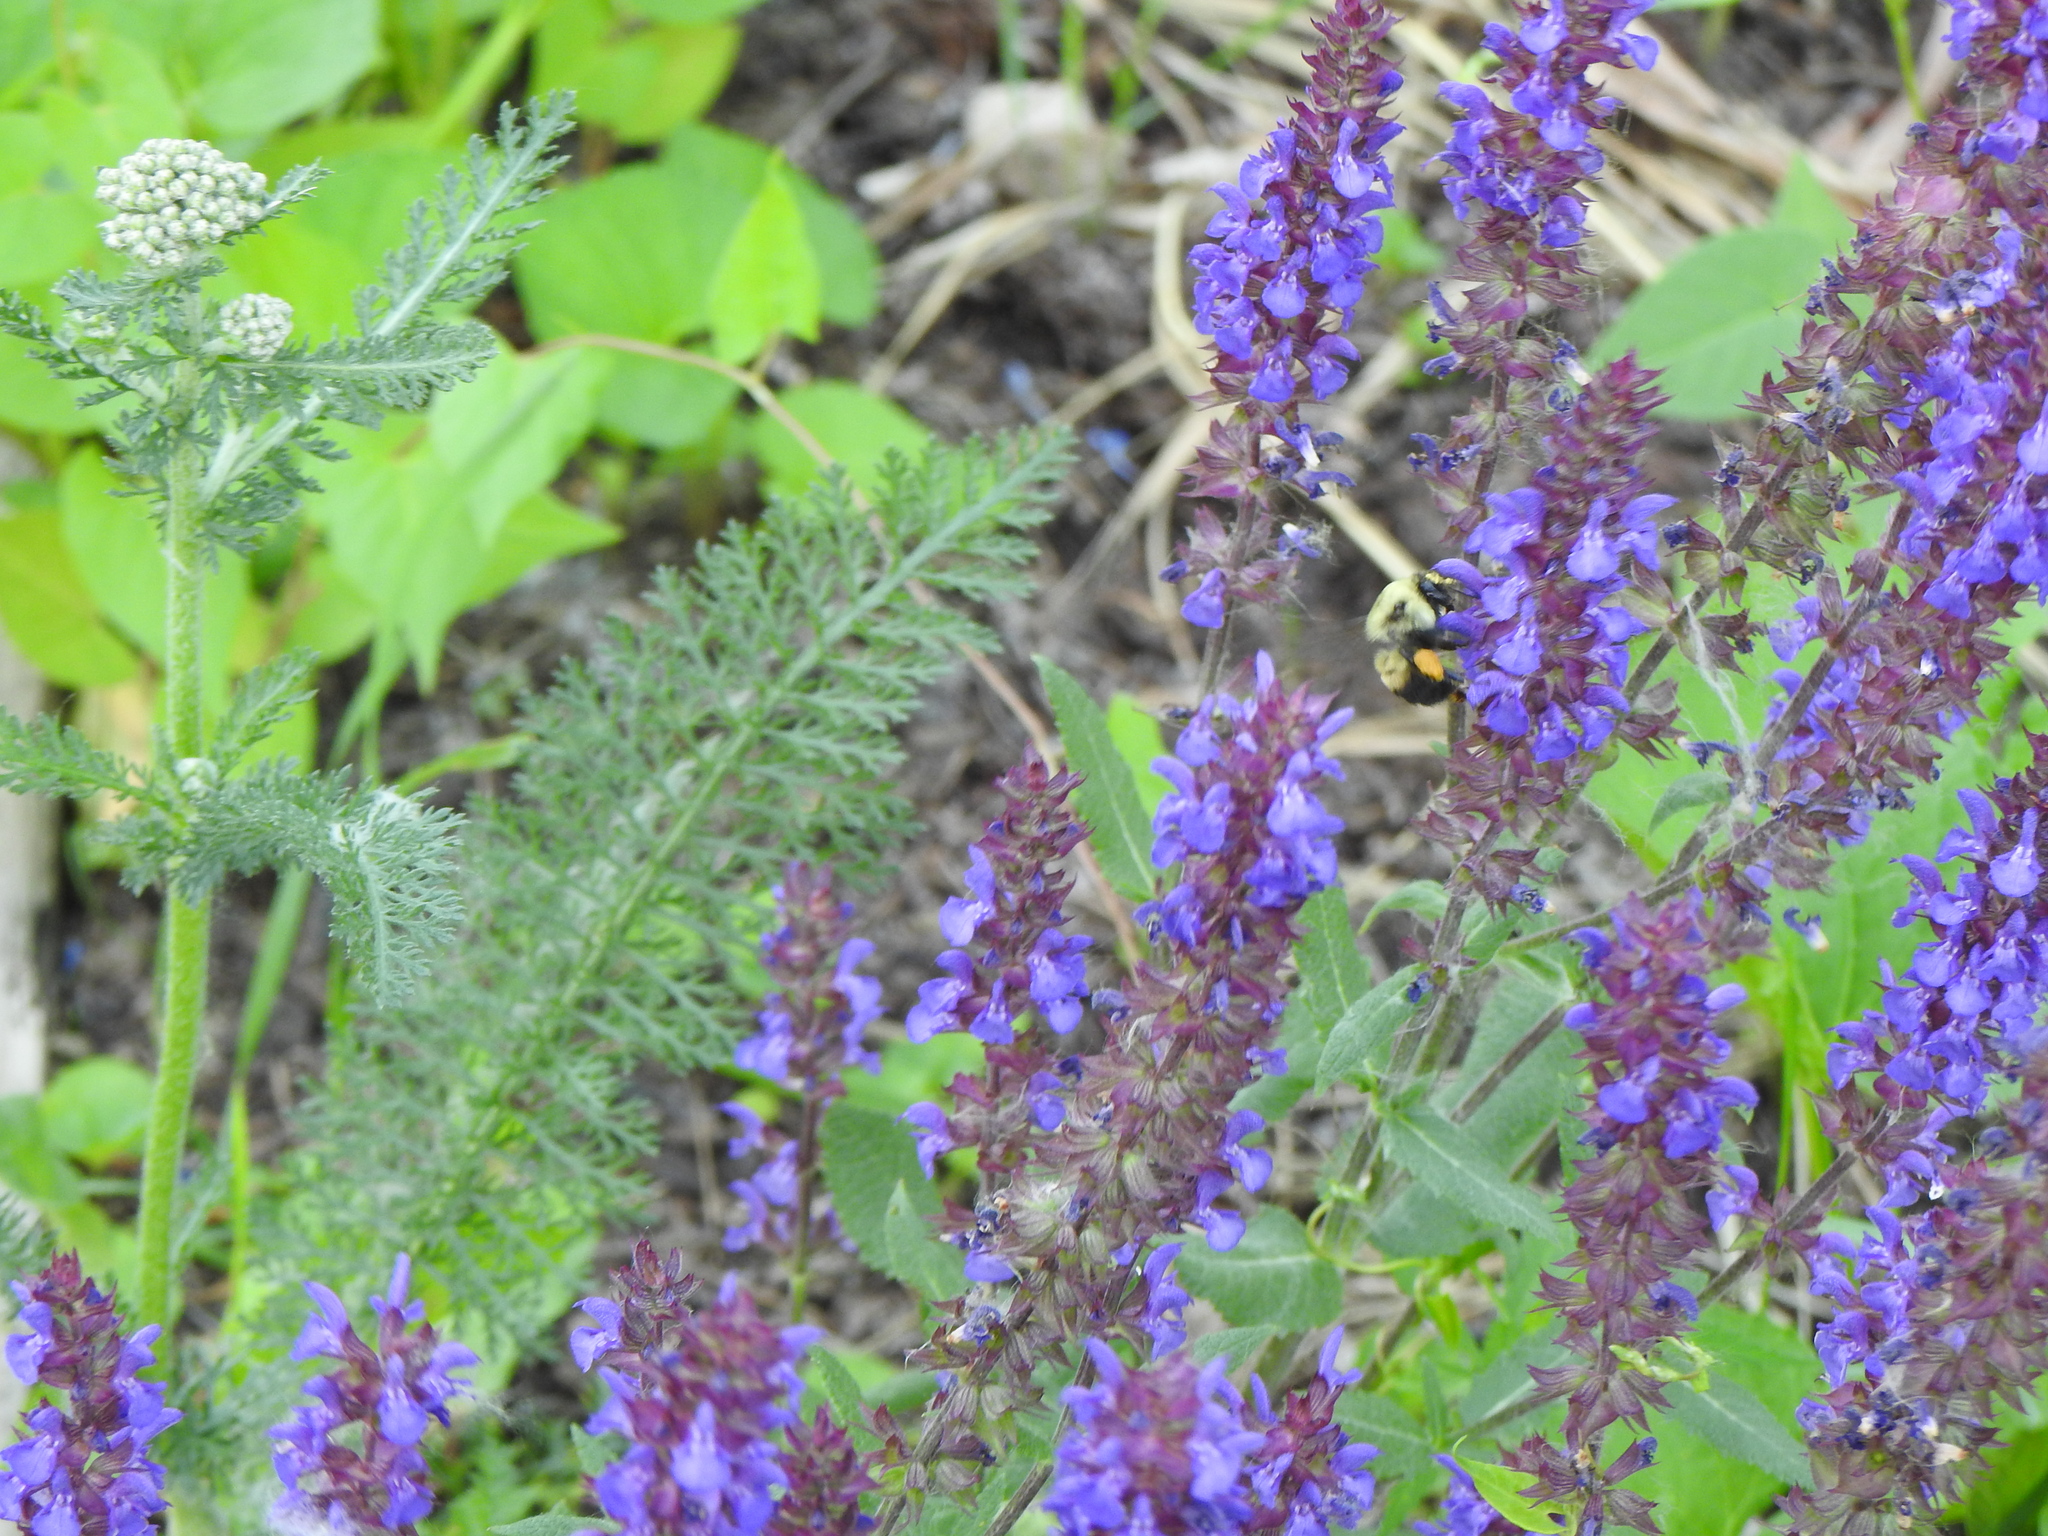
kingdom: Animalia
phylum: Arthropoda
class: Insecta
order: Hymenoptera
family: Apidae
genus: Bombus
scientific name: Bombus griseocollis
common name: Brown-belted bumble bee
